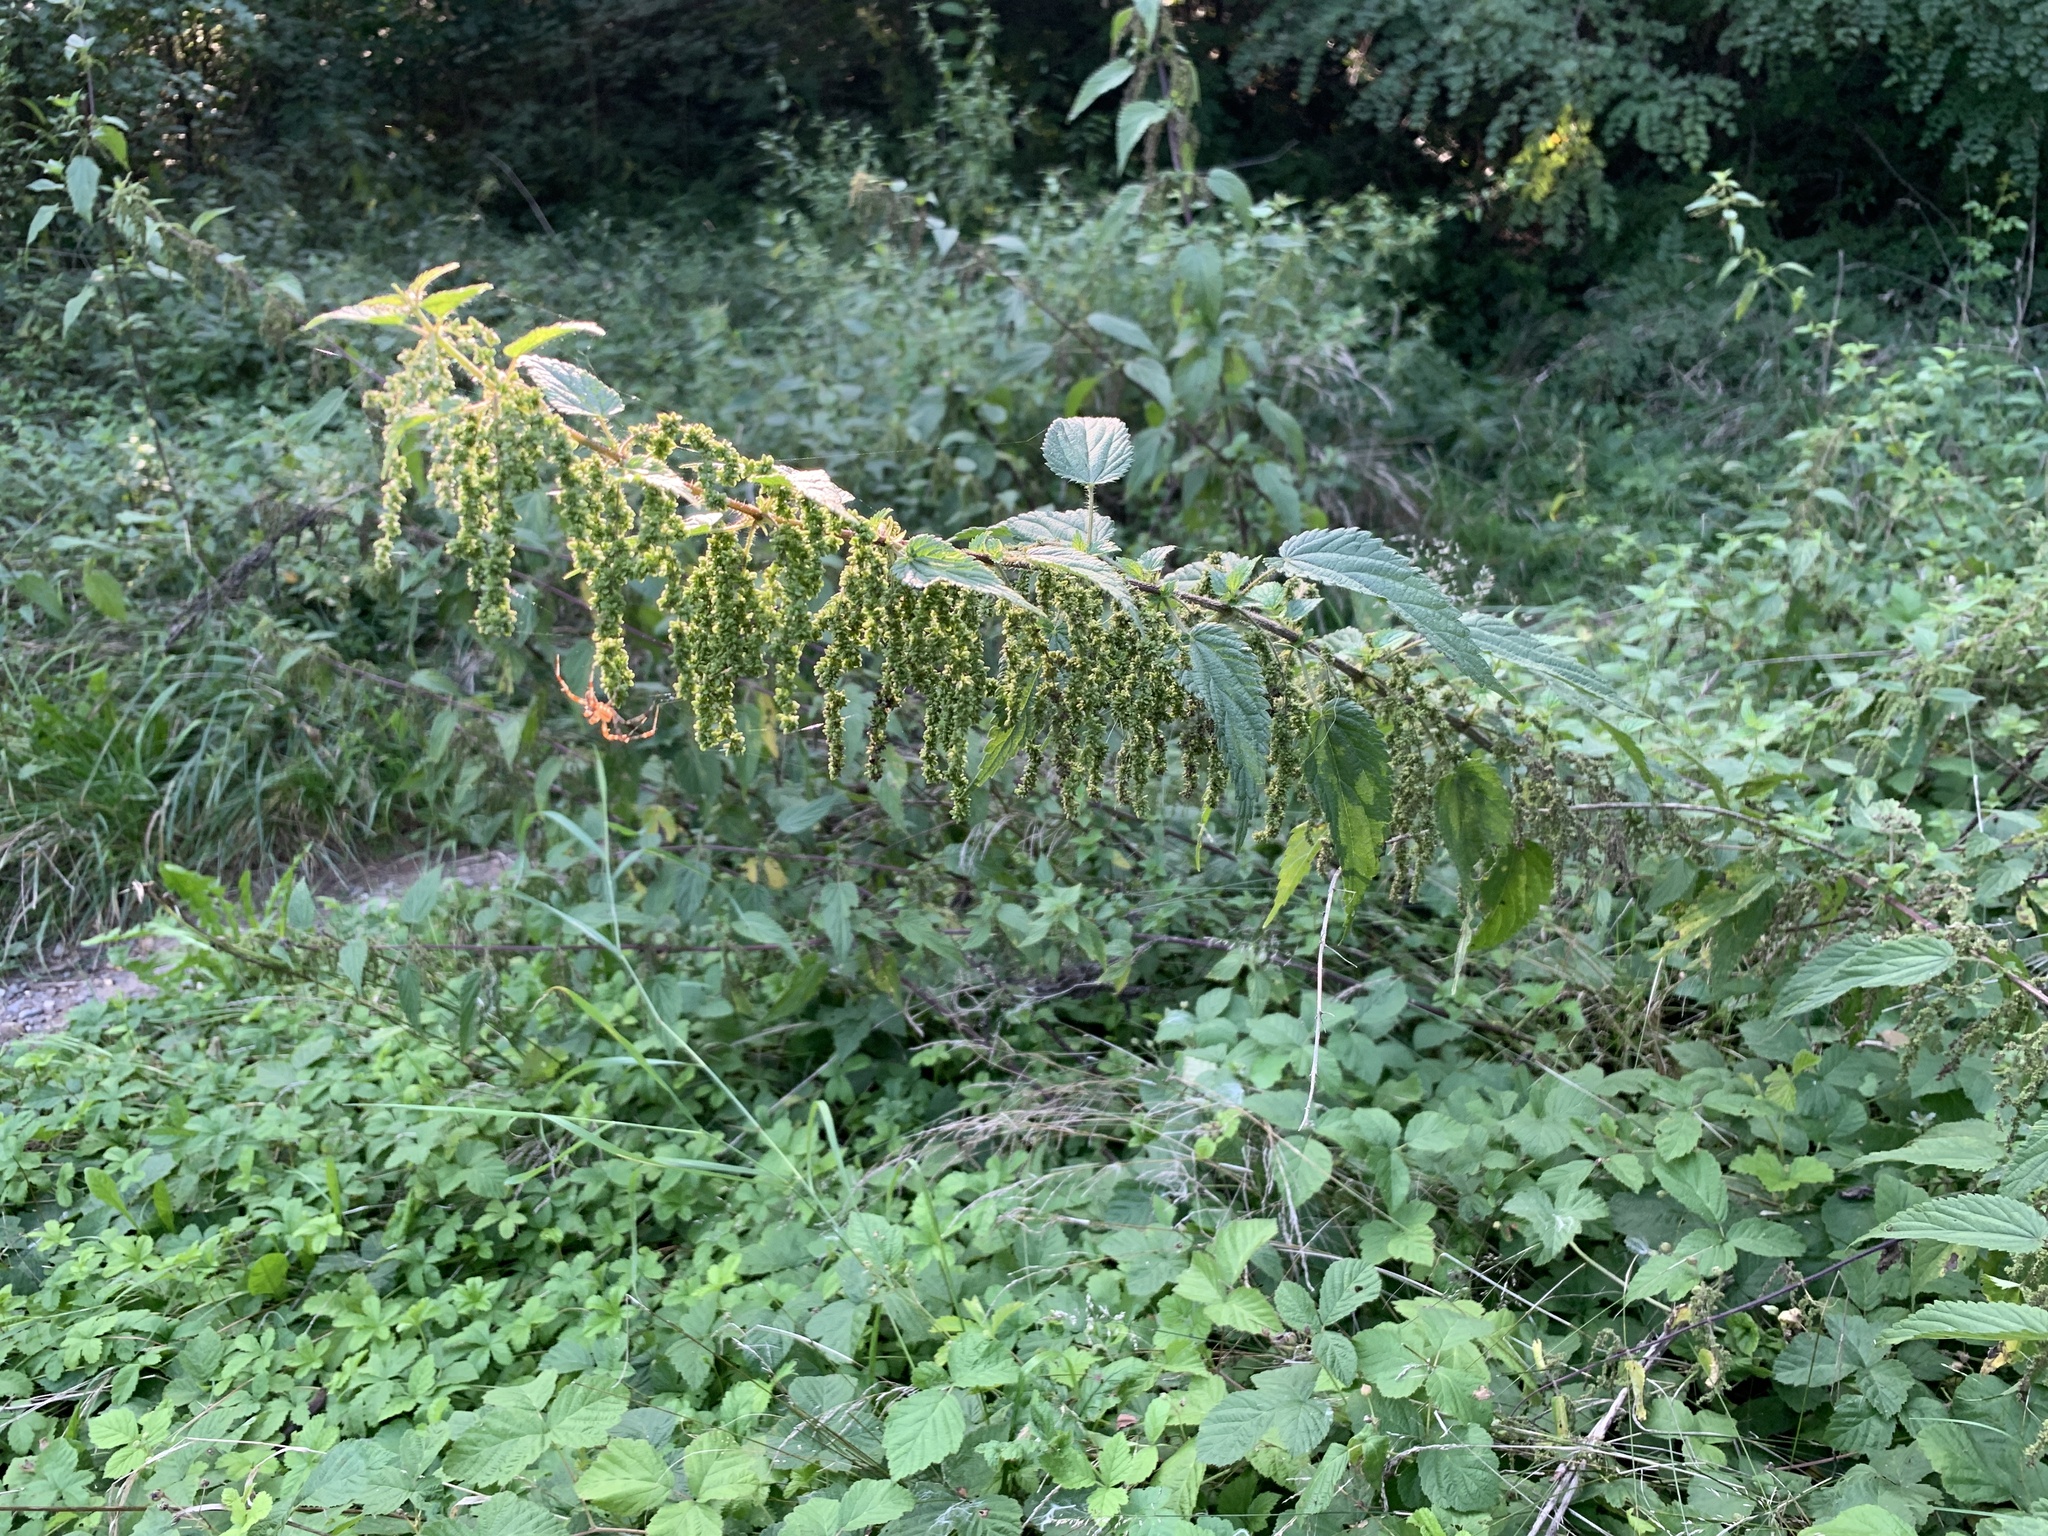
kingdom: Plantae
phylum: Tracheophyta
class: Magnoliopsida
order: Rosales
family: Urticaceae
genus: Urtica
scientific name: Urtica dioica
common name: Common nettle
